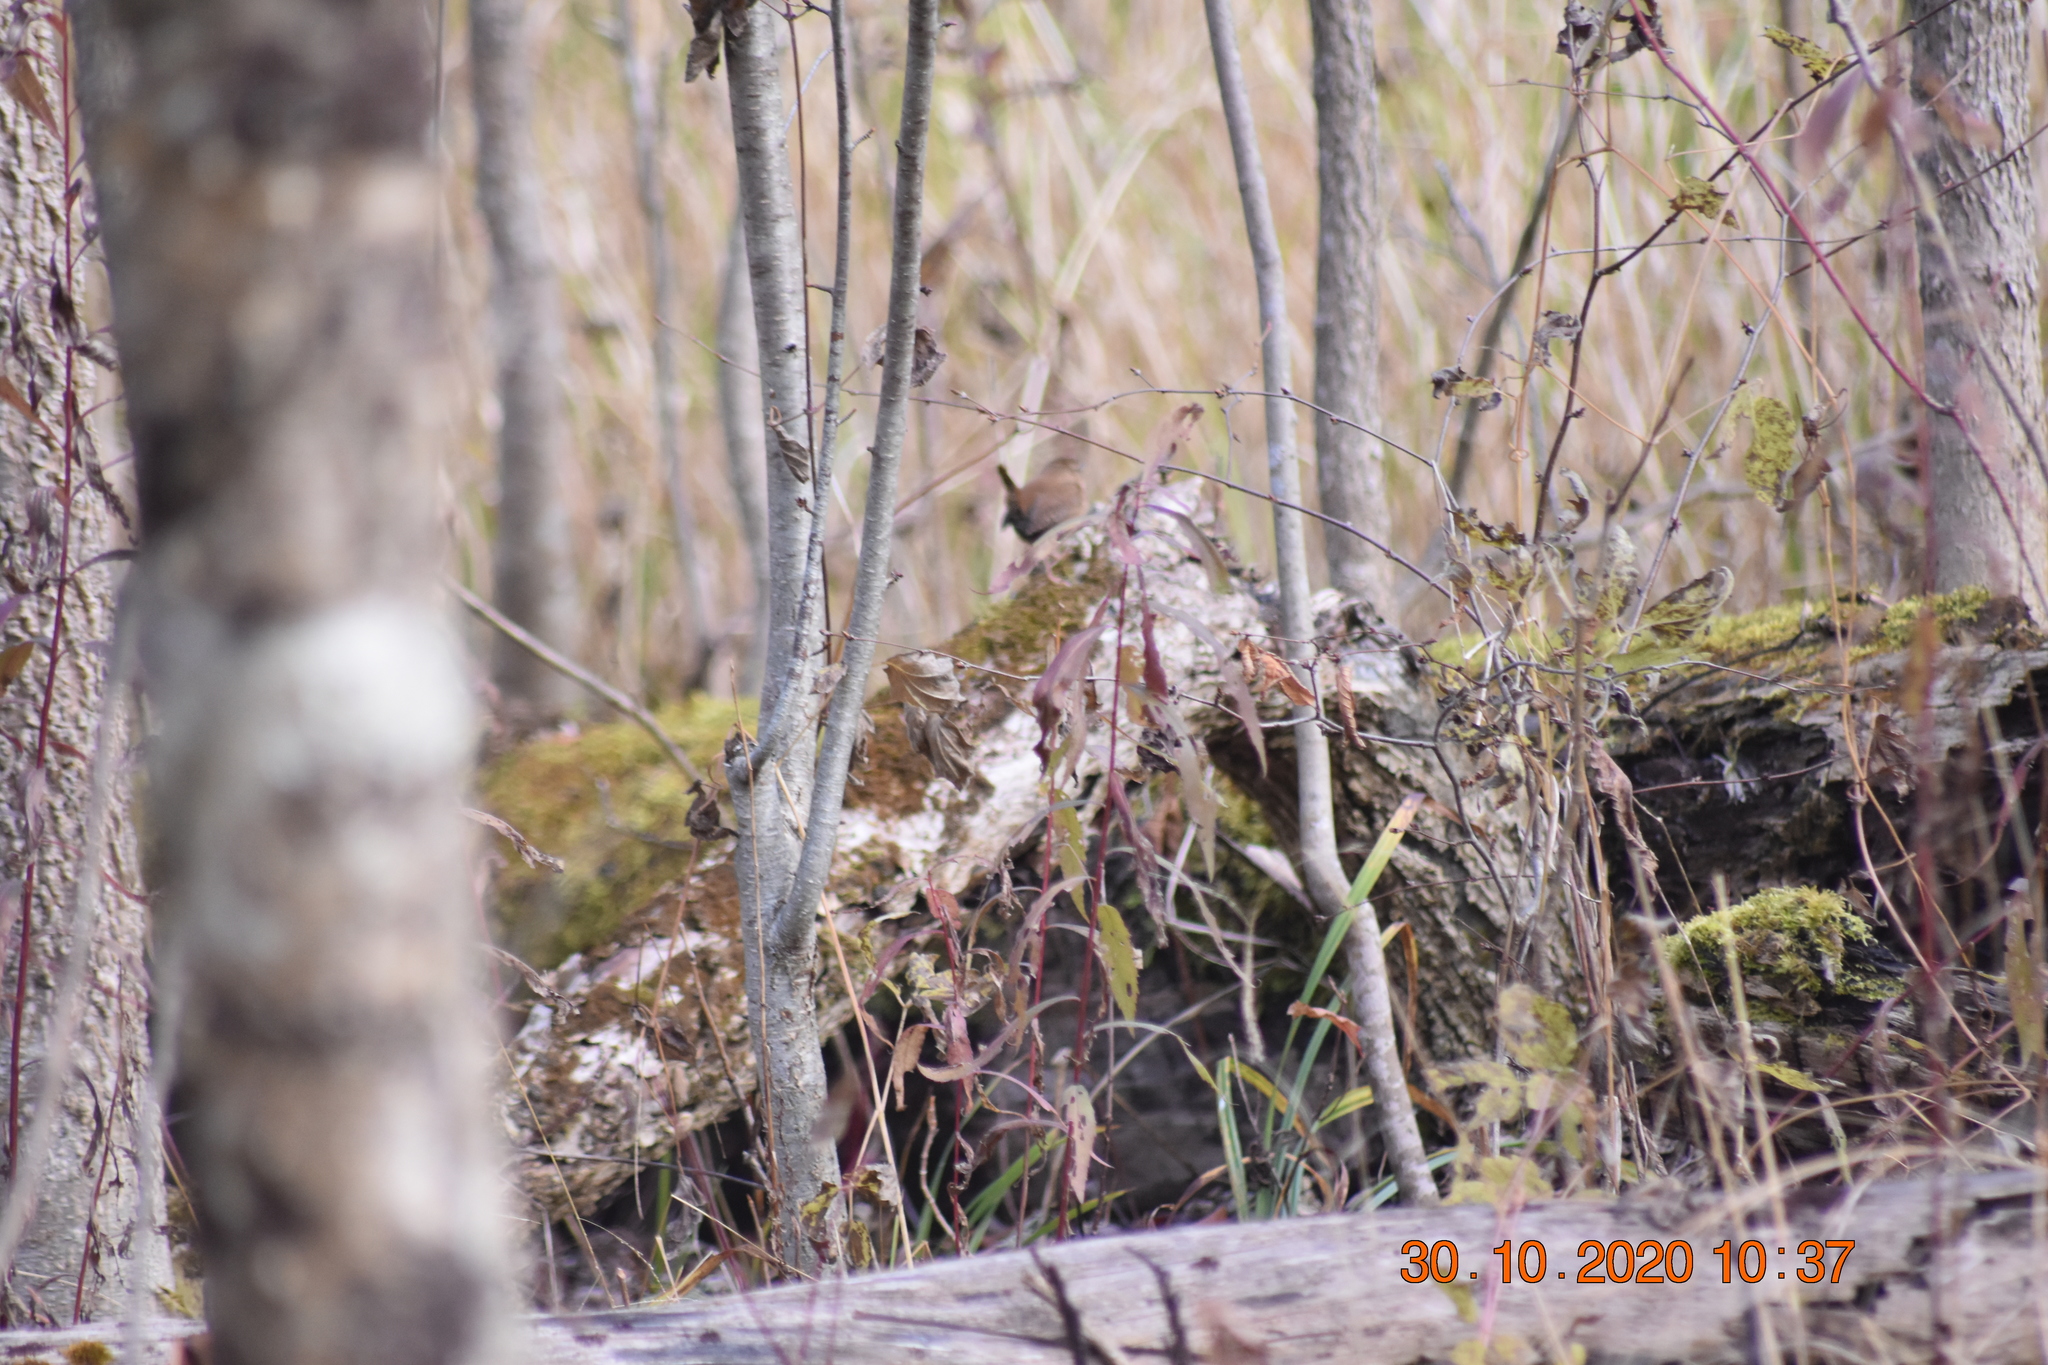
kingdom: Animalia
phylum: Chordata
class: Aves
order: Passeriformes
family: Troglodytidae
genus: Troglodytes
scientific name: Troglodytes hiemalis
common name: Winter wren
